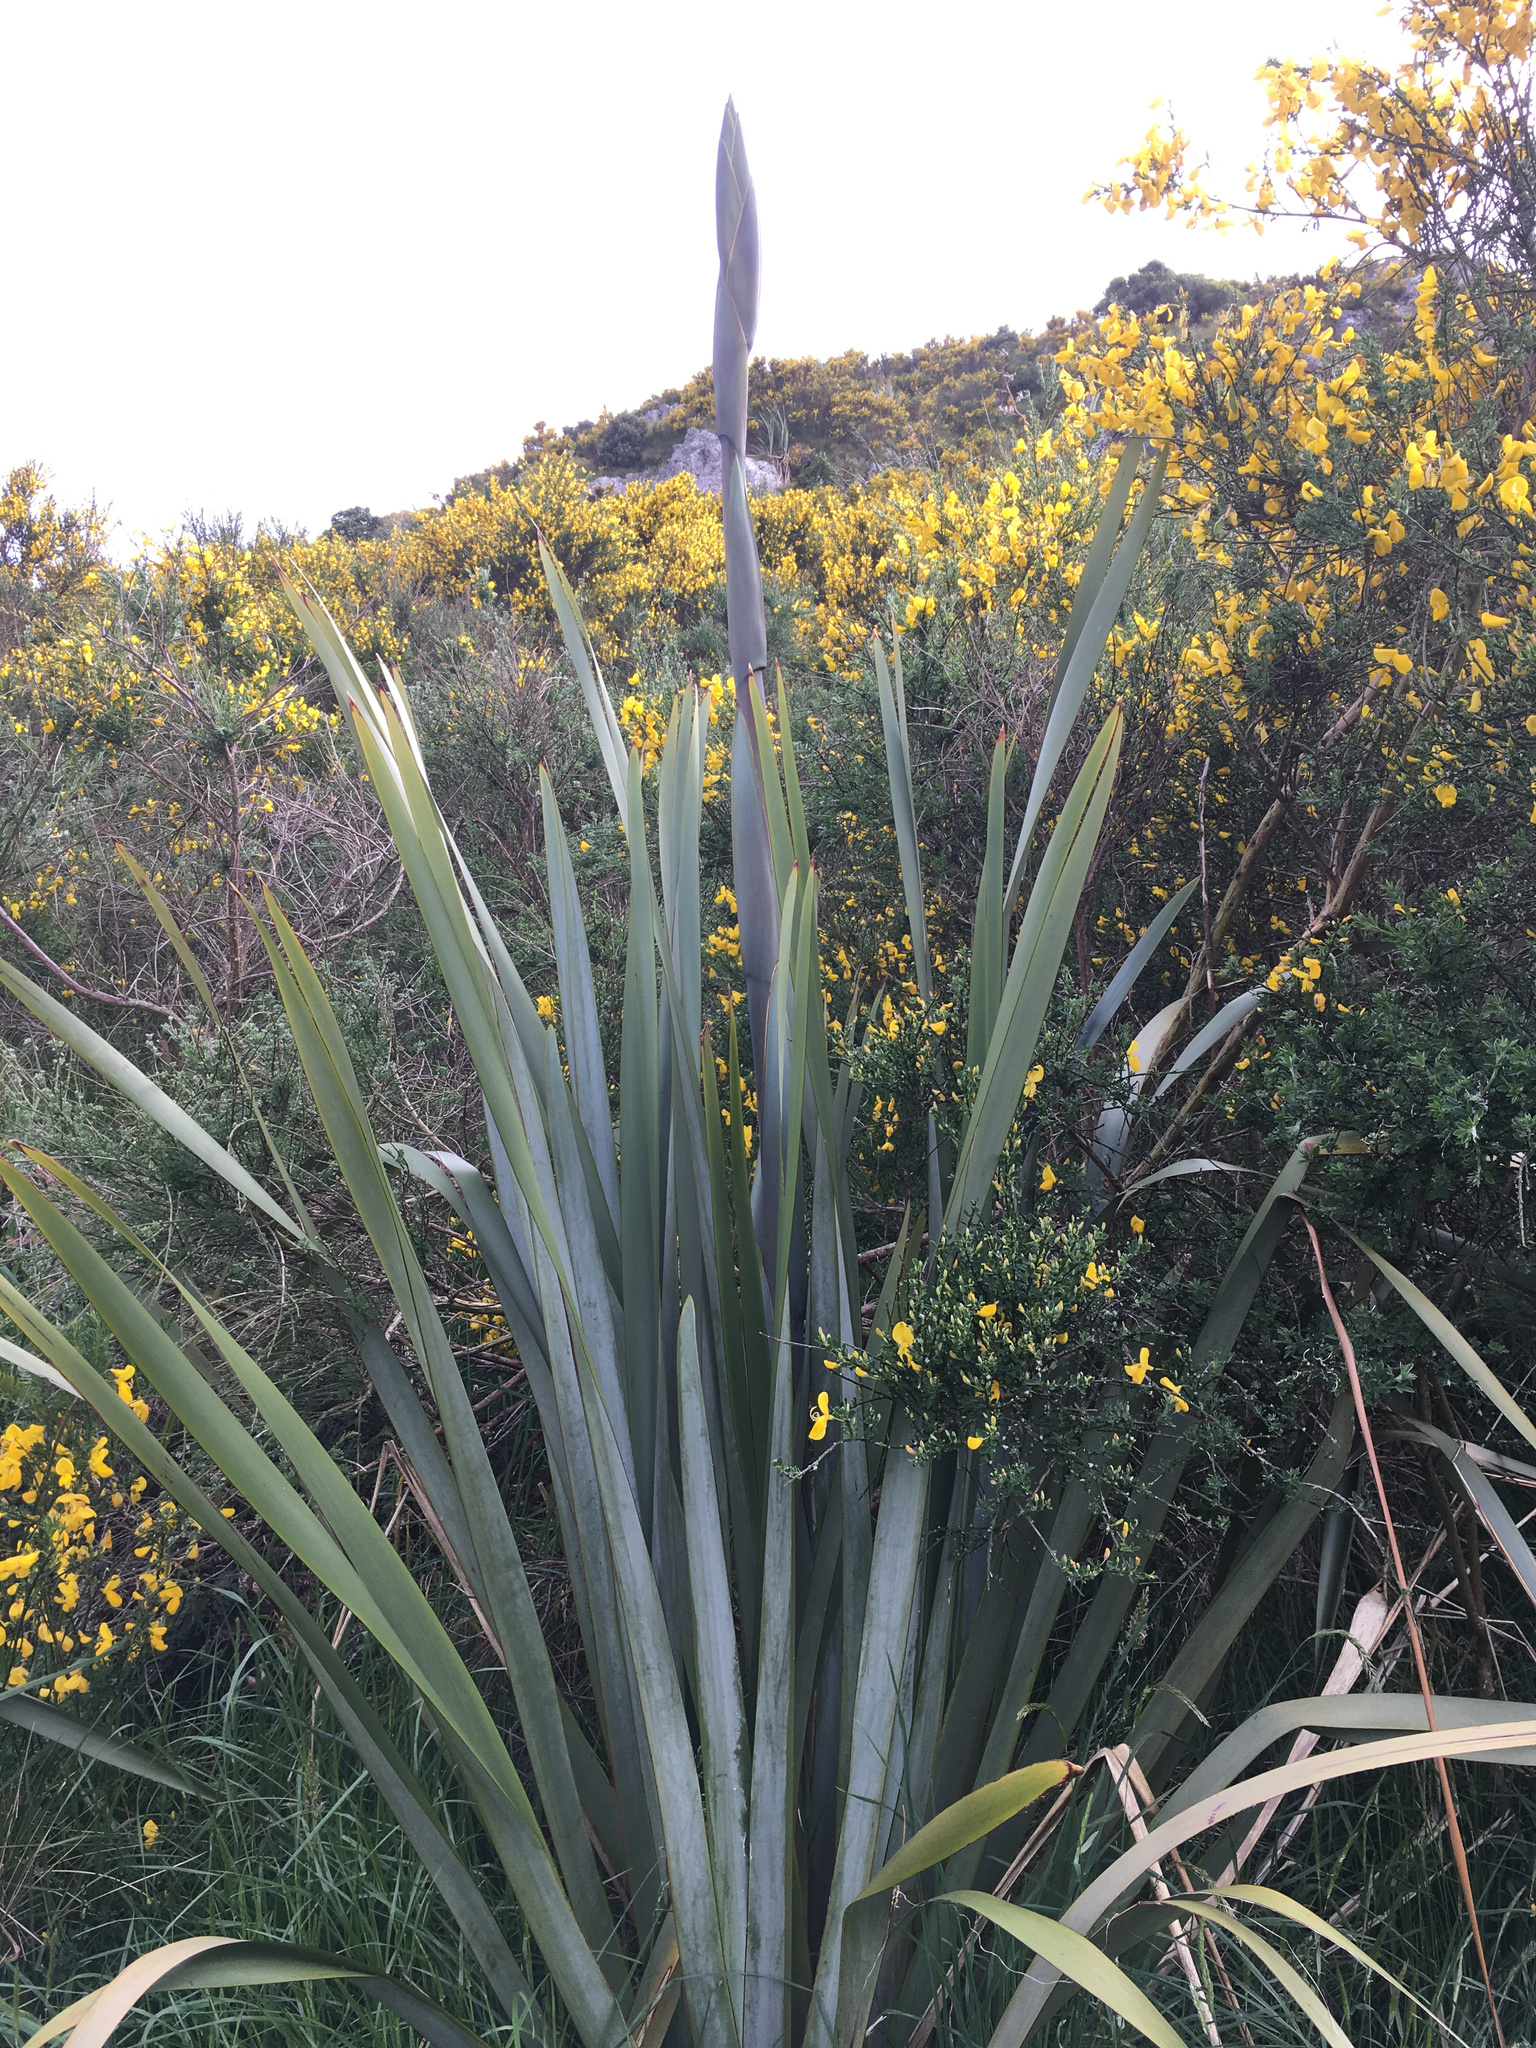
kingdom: Plantae
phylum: Tracheophyta
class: Liliopsida
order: Asparagales
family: Asphodelaceae
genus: Phormium
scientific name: Phormium tenax
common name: New zealand flax
